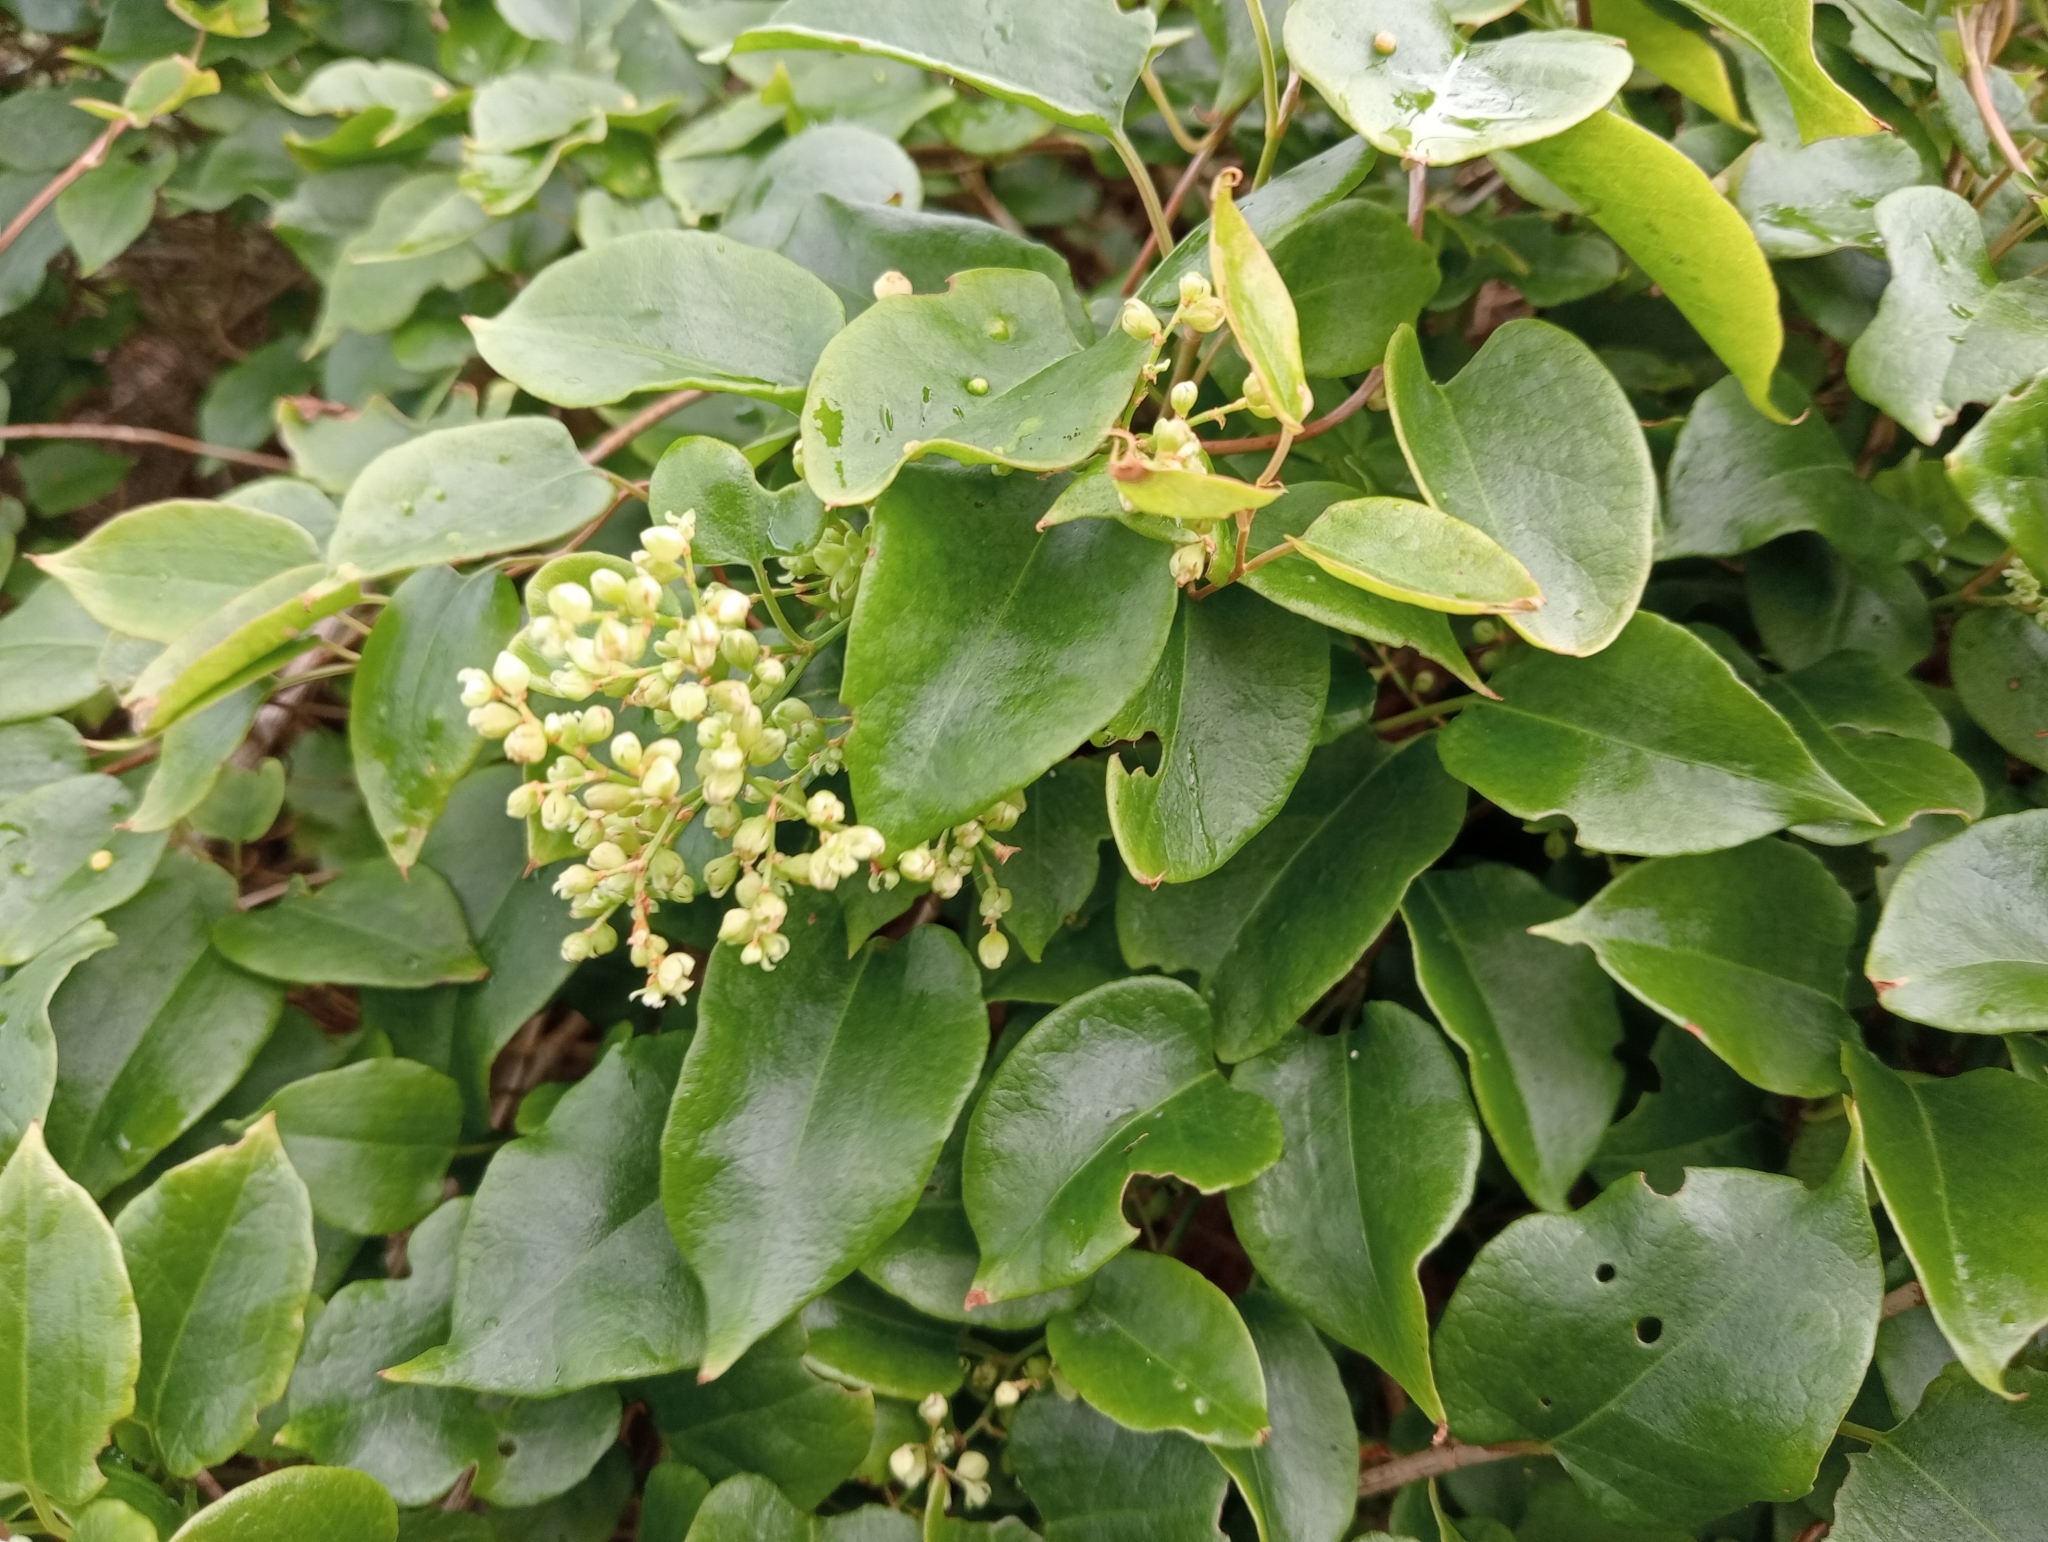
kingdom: Plantae
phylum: Tracheophyta
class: Magnoliopsida
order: Caryophyllales
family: Polygonaceae
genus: Muehlenbeckia
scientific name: Muehlenbeckia australis
